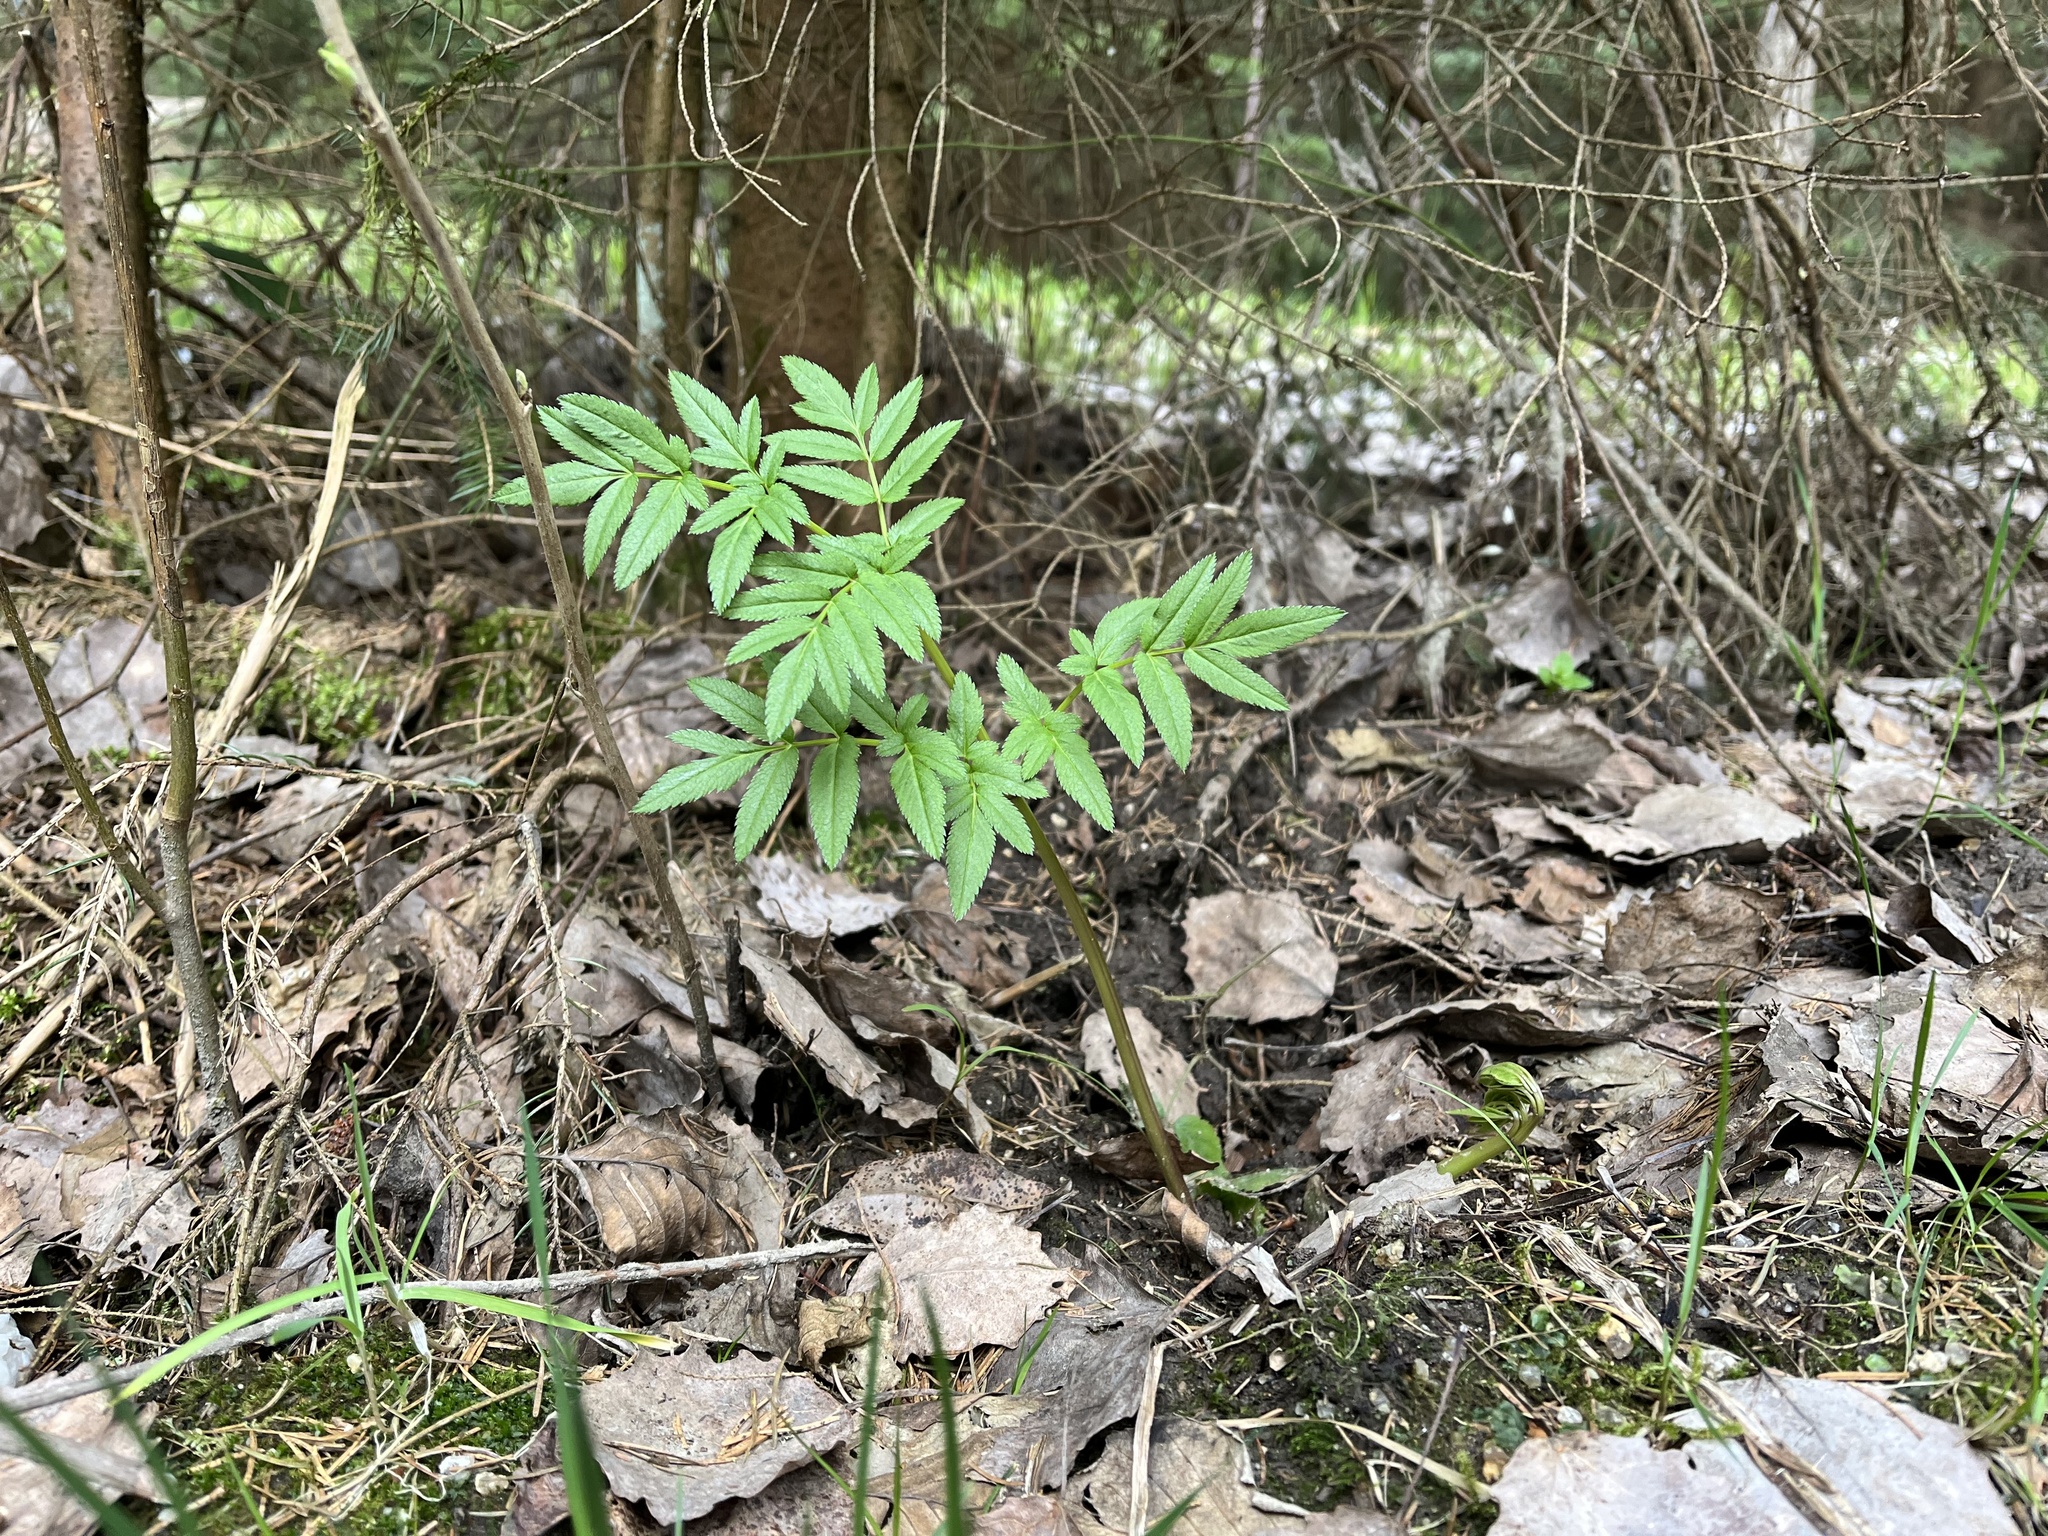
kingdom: Plantae
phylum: Tracheophyta
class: Magnoliopsida
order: Apiales
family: Apiaceae
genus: Angelica
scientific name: Angelica sylvestris
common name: Wild angelica
